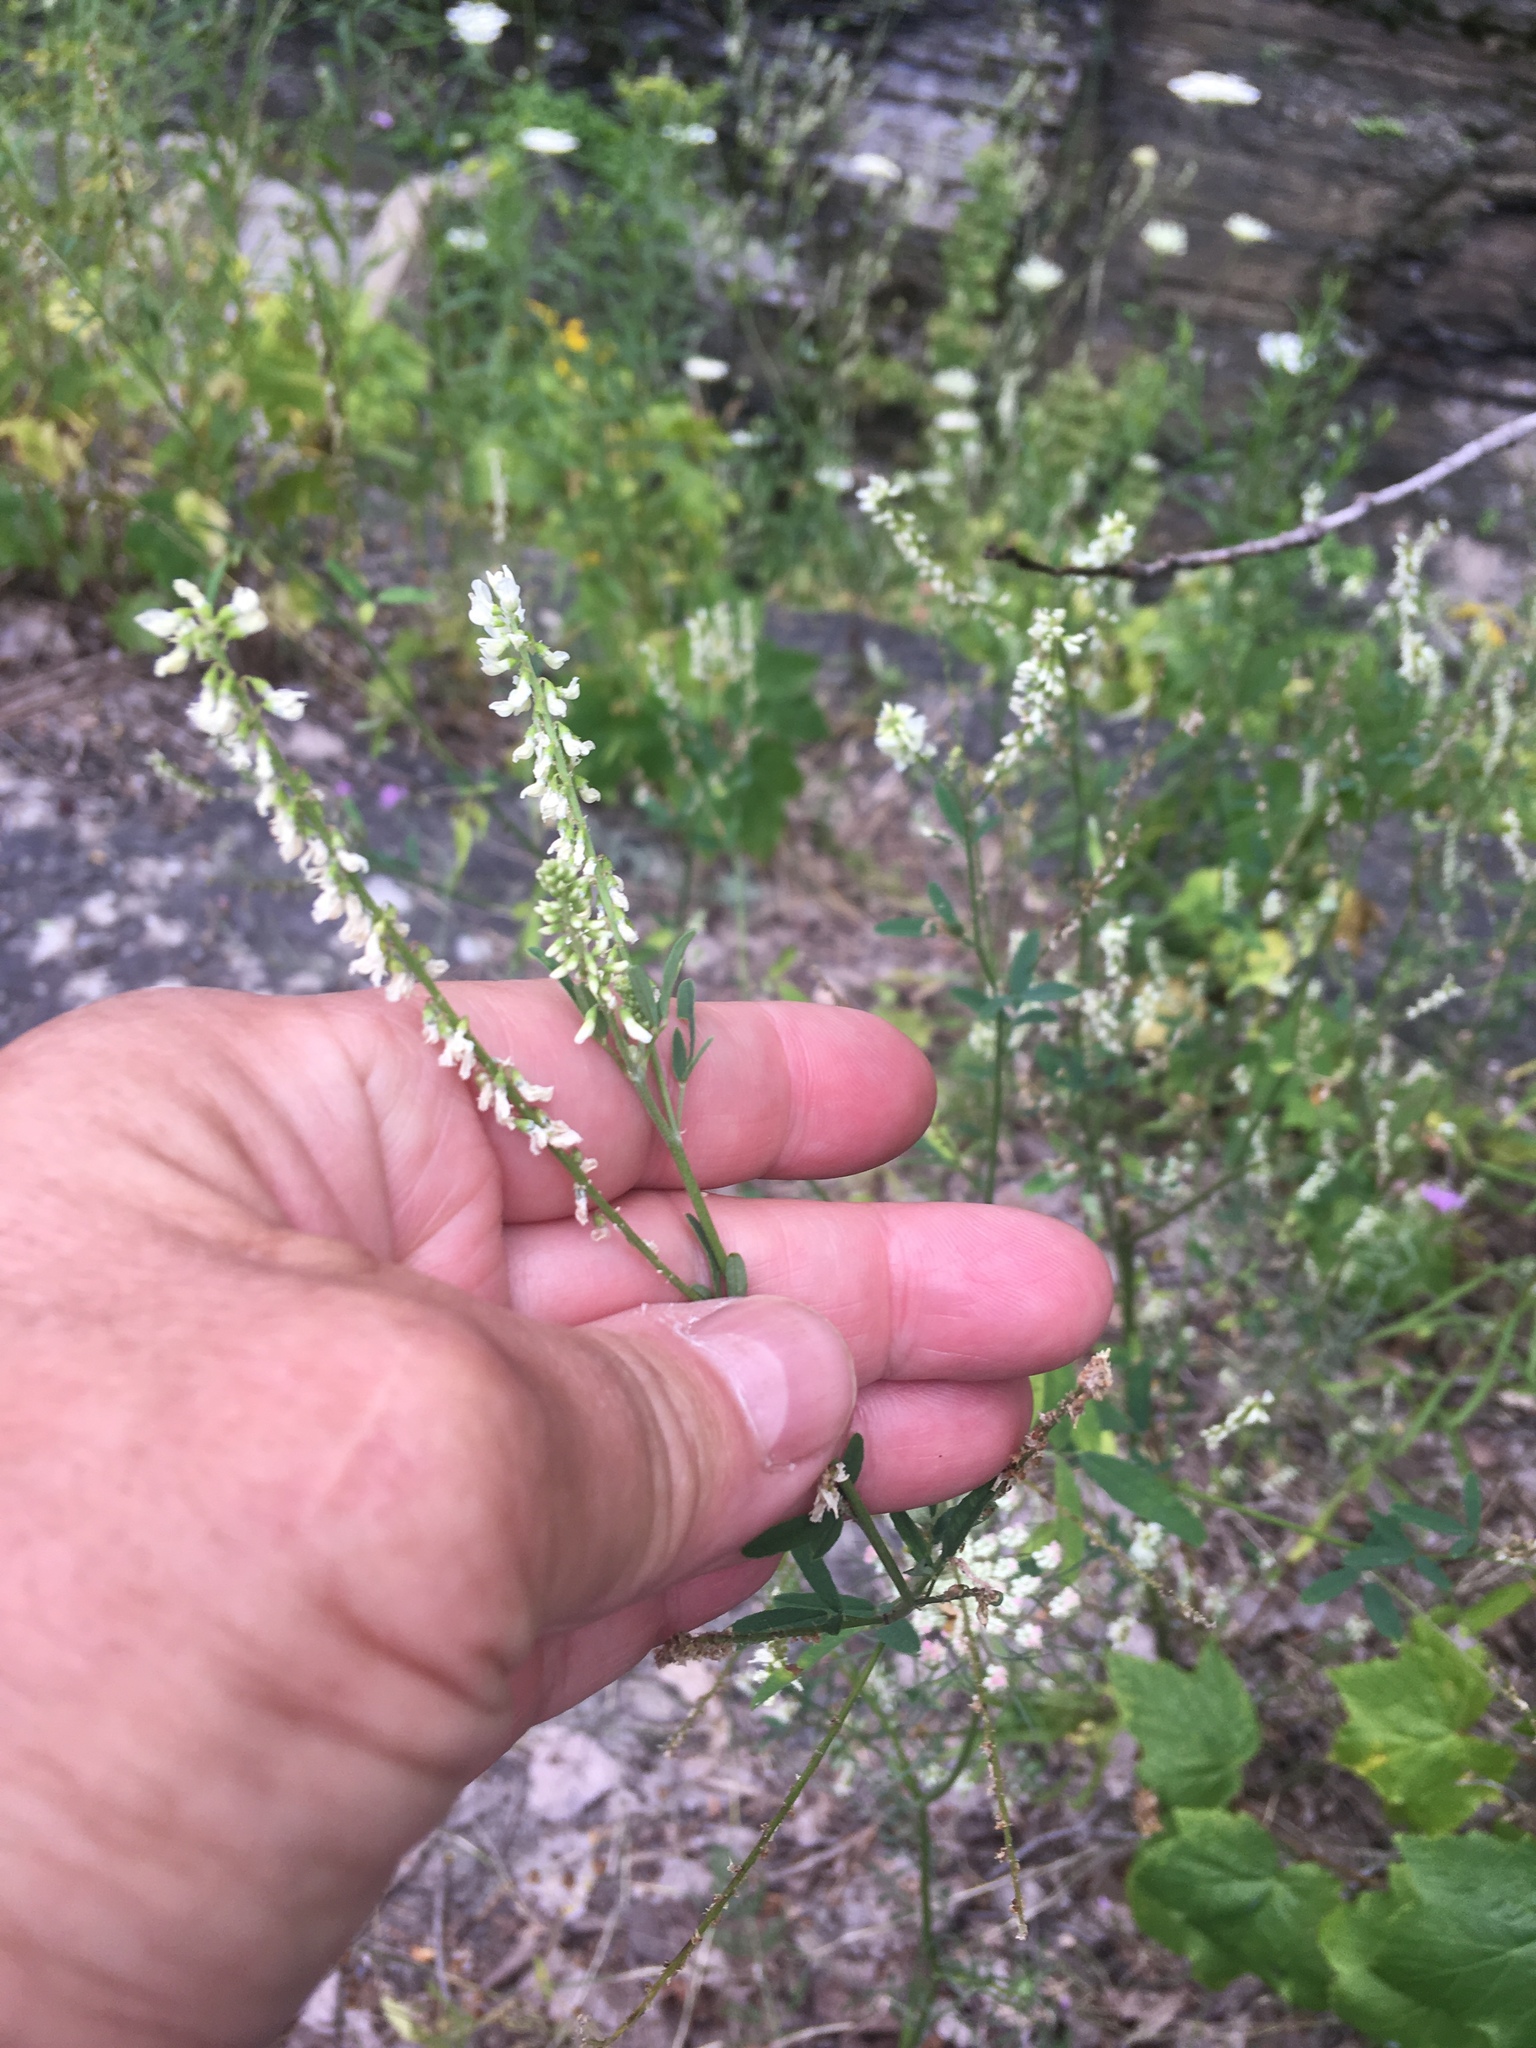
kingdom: Plantae
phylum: Tracheophyta
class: Magnoliopsida
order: Fabales
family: Fabaceae
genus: Melilotus
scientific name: Melilotus albus
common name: White melilot
